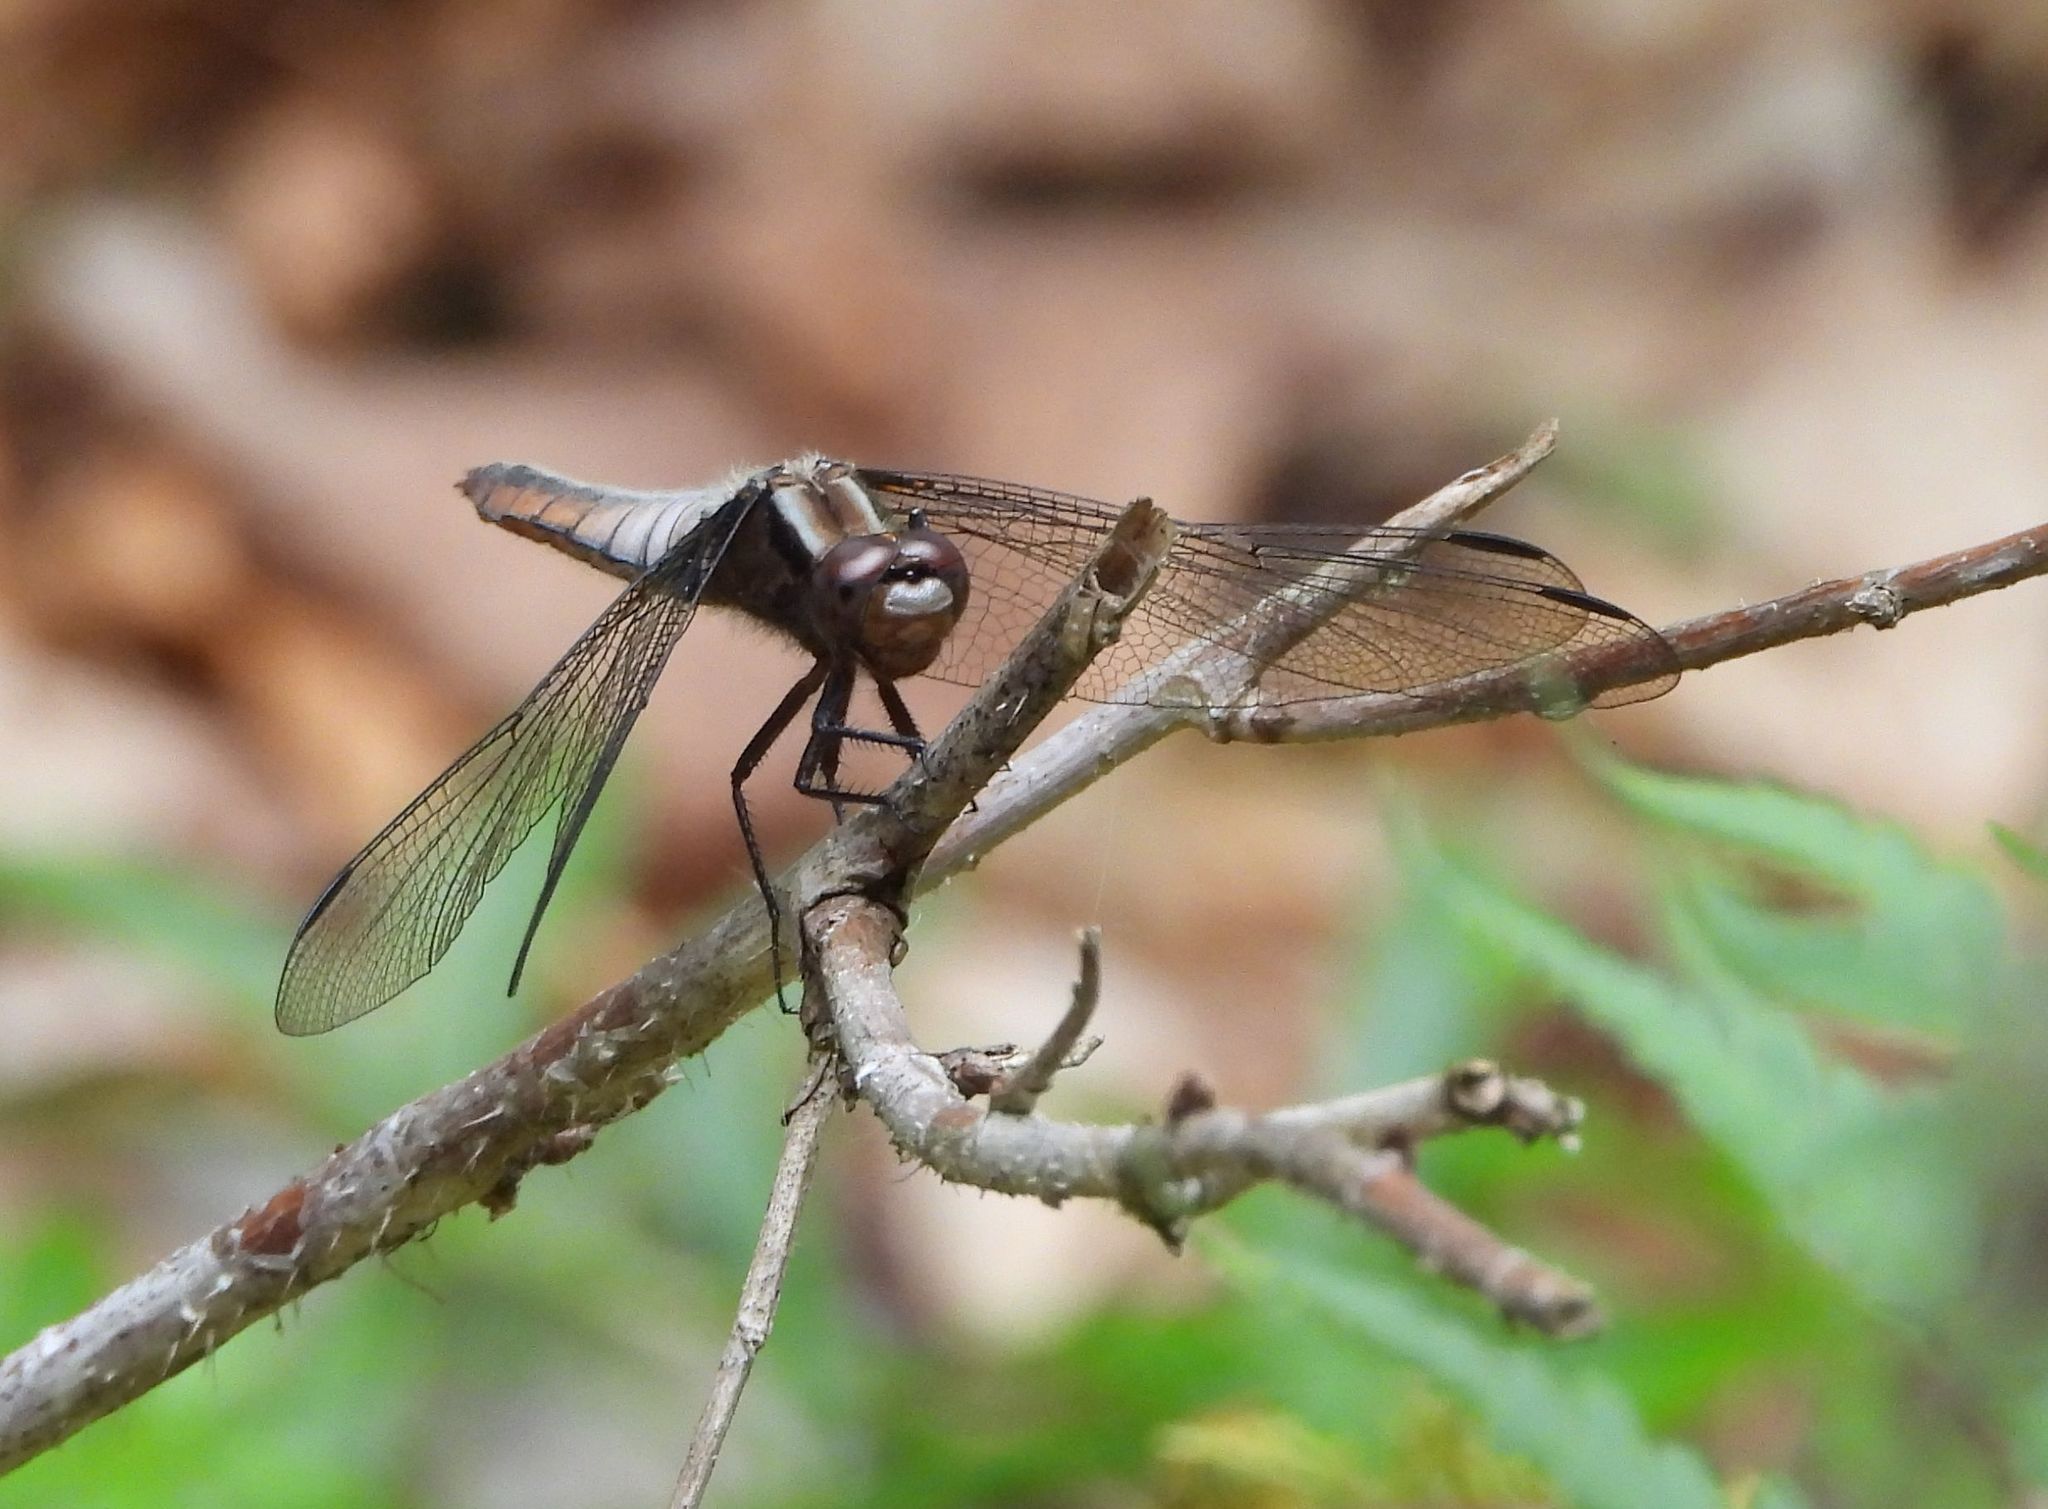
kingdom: Animalia
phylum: Arthropoda
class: Insecta
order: Odonata
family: Libellulidae
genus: Ladona
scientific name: Ladona julia
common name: Chalk-fronted corporal
